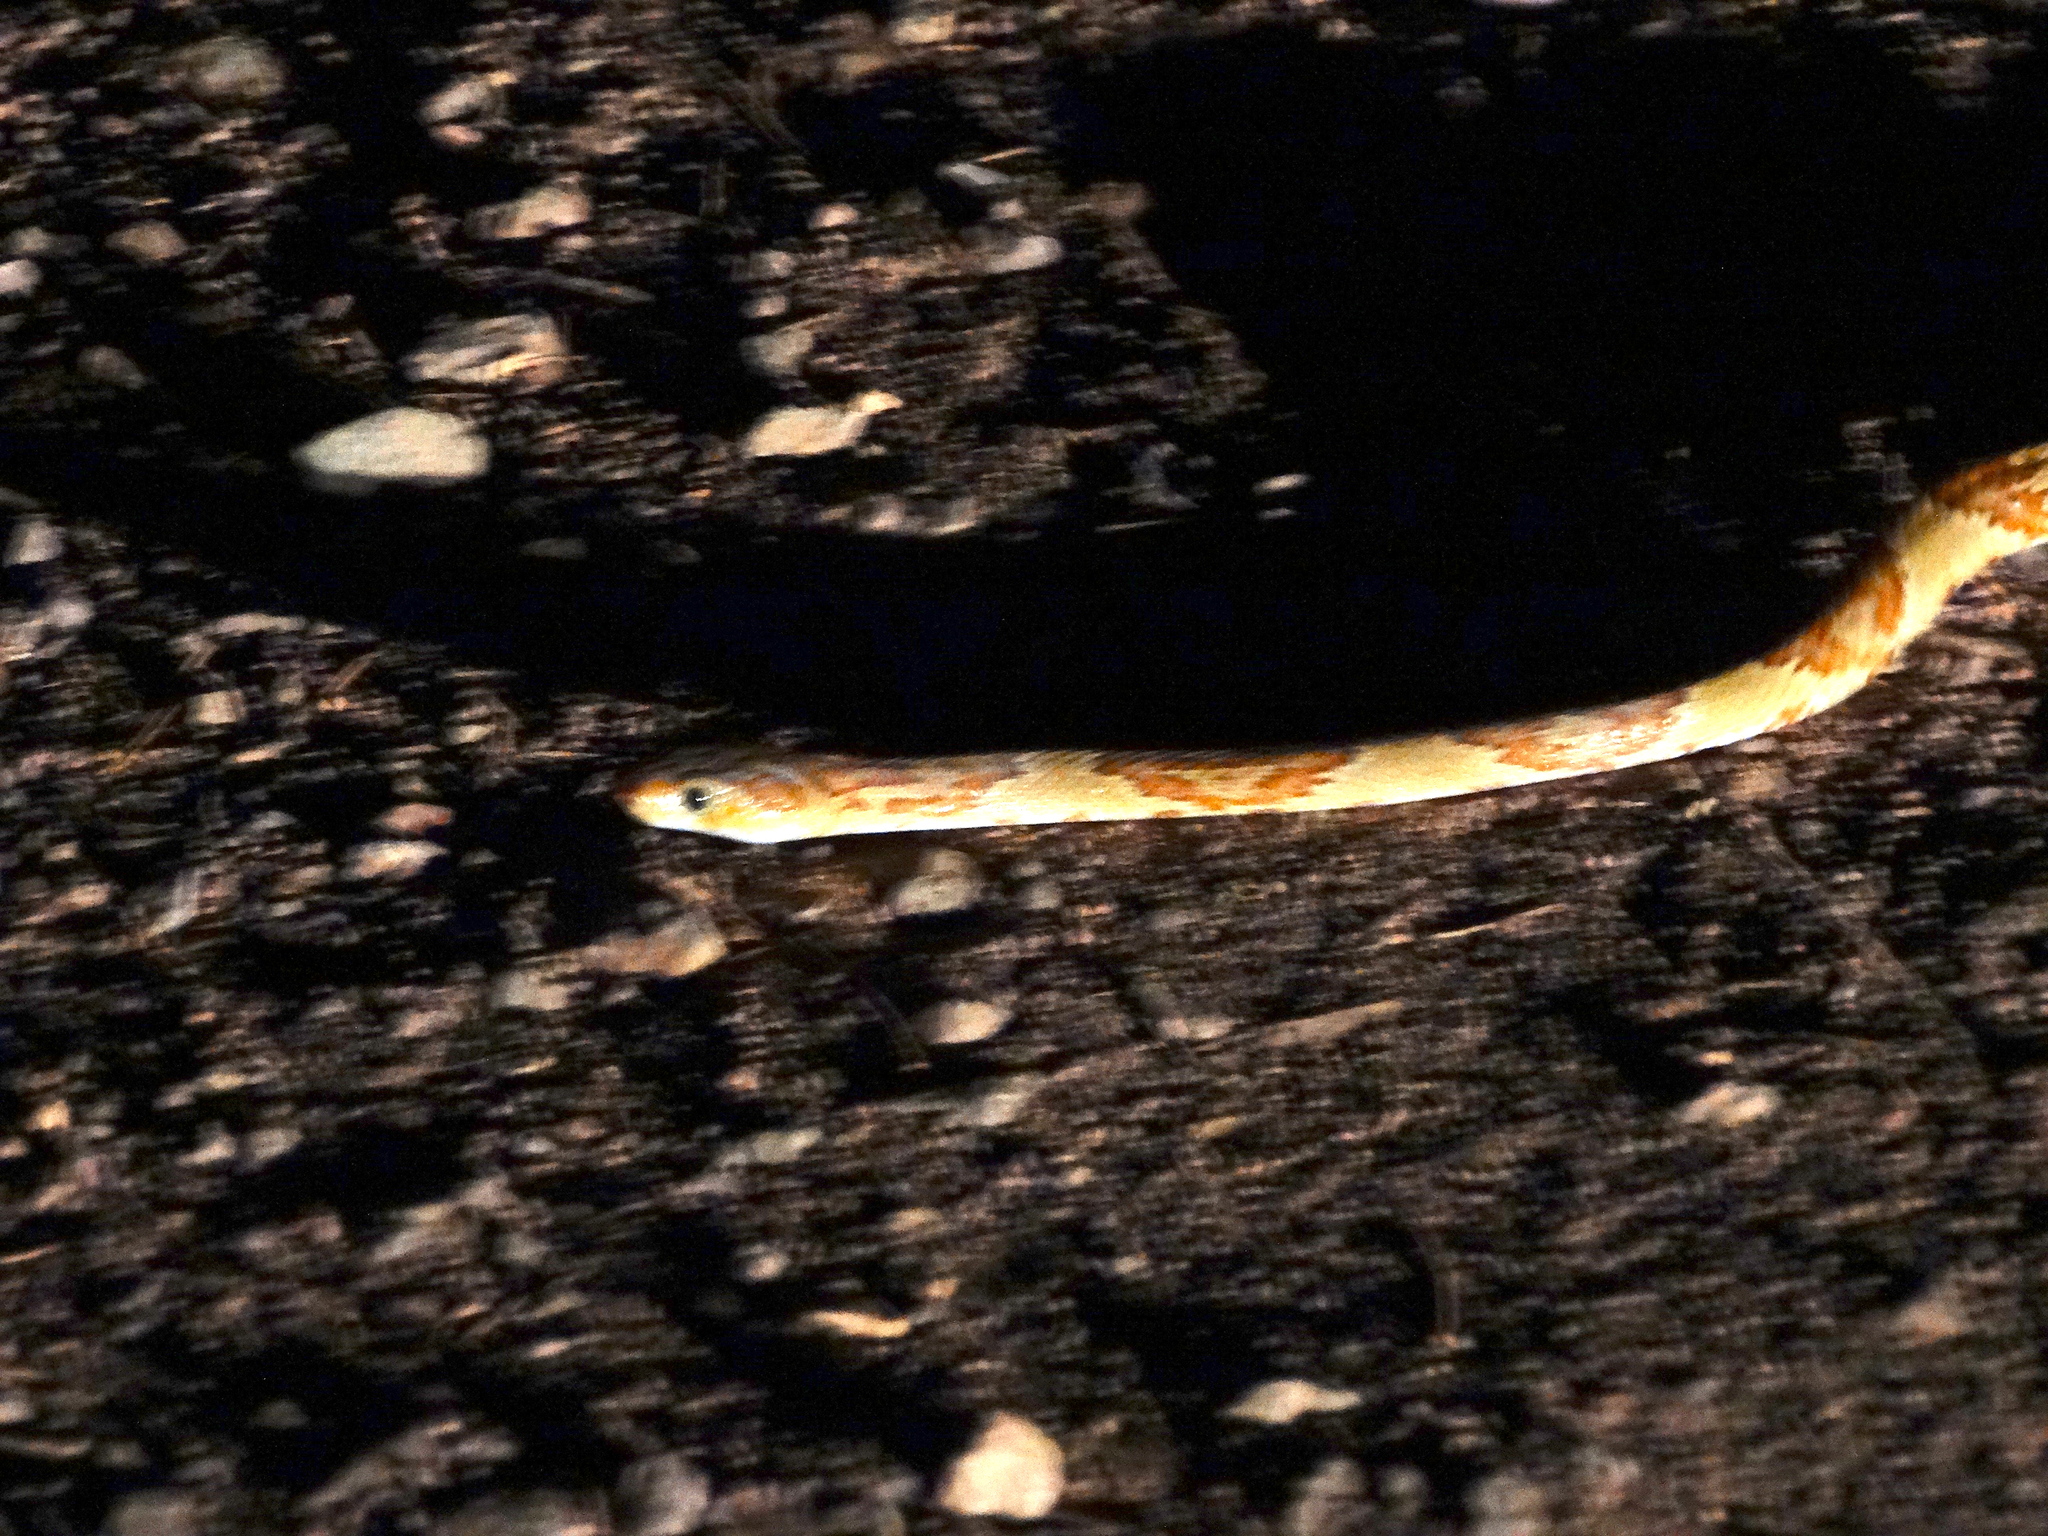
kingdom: Animalia
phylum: Chordata
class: Squamata
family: Colubridae
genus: Trimorphodon
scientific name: Trimorphodon paucimaculatus
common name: Sinaloan lyresnake
